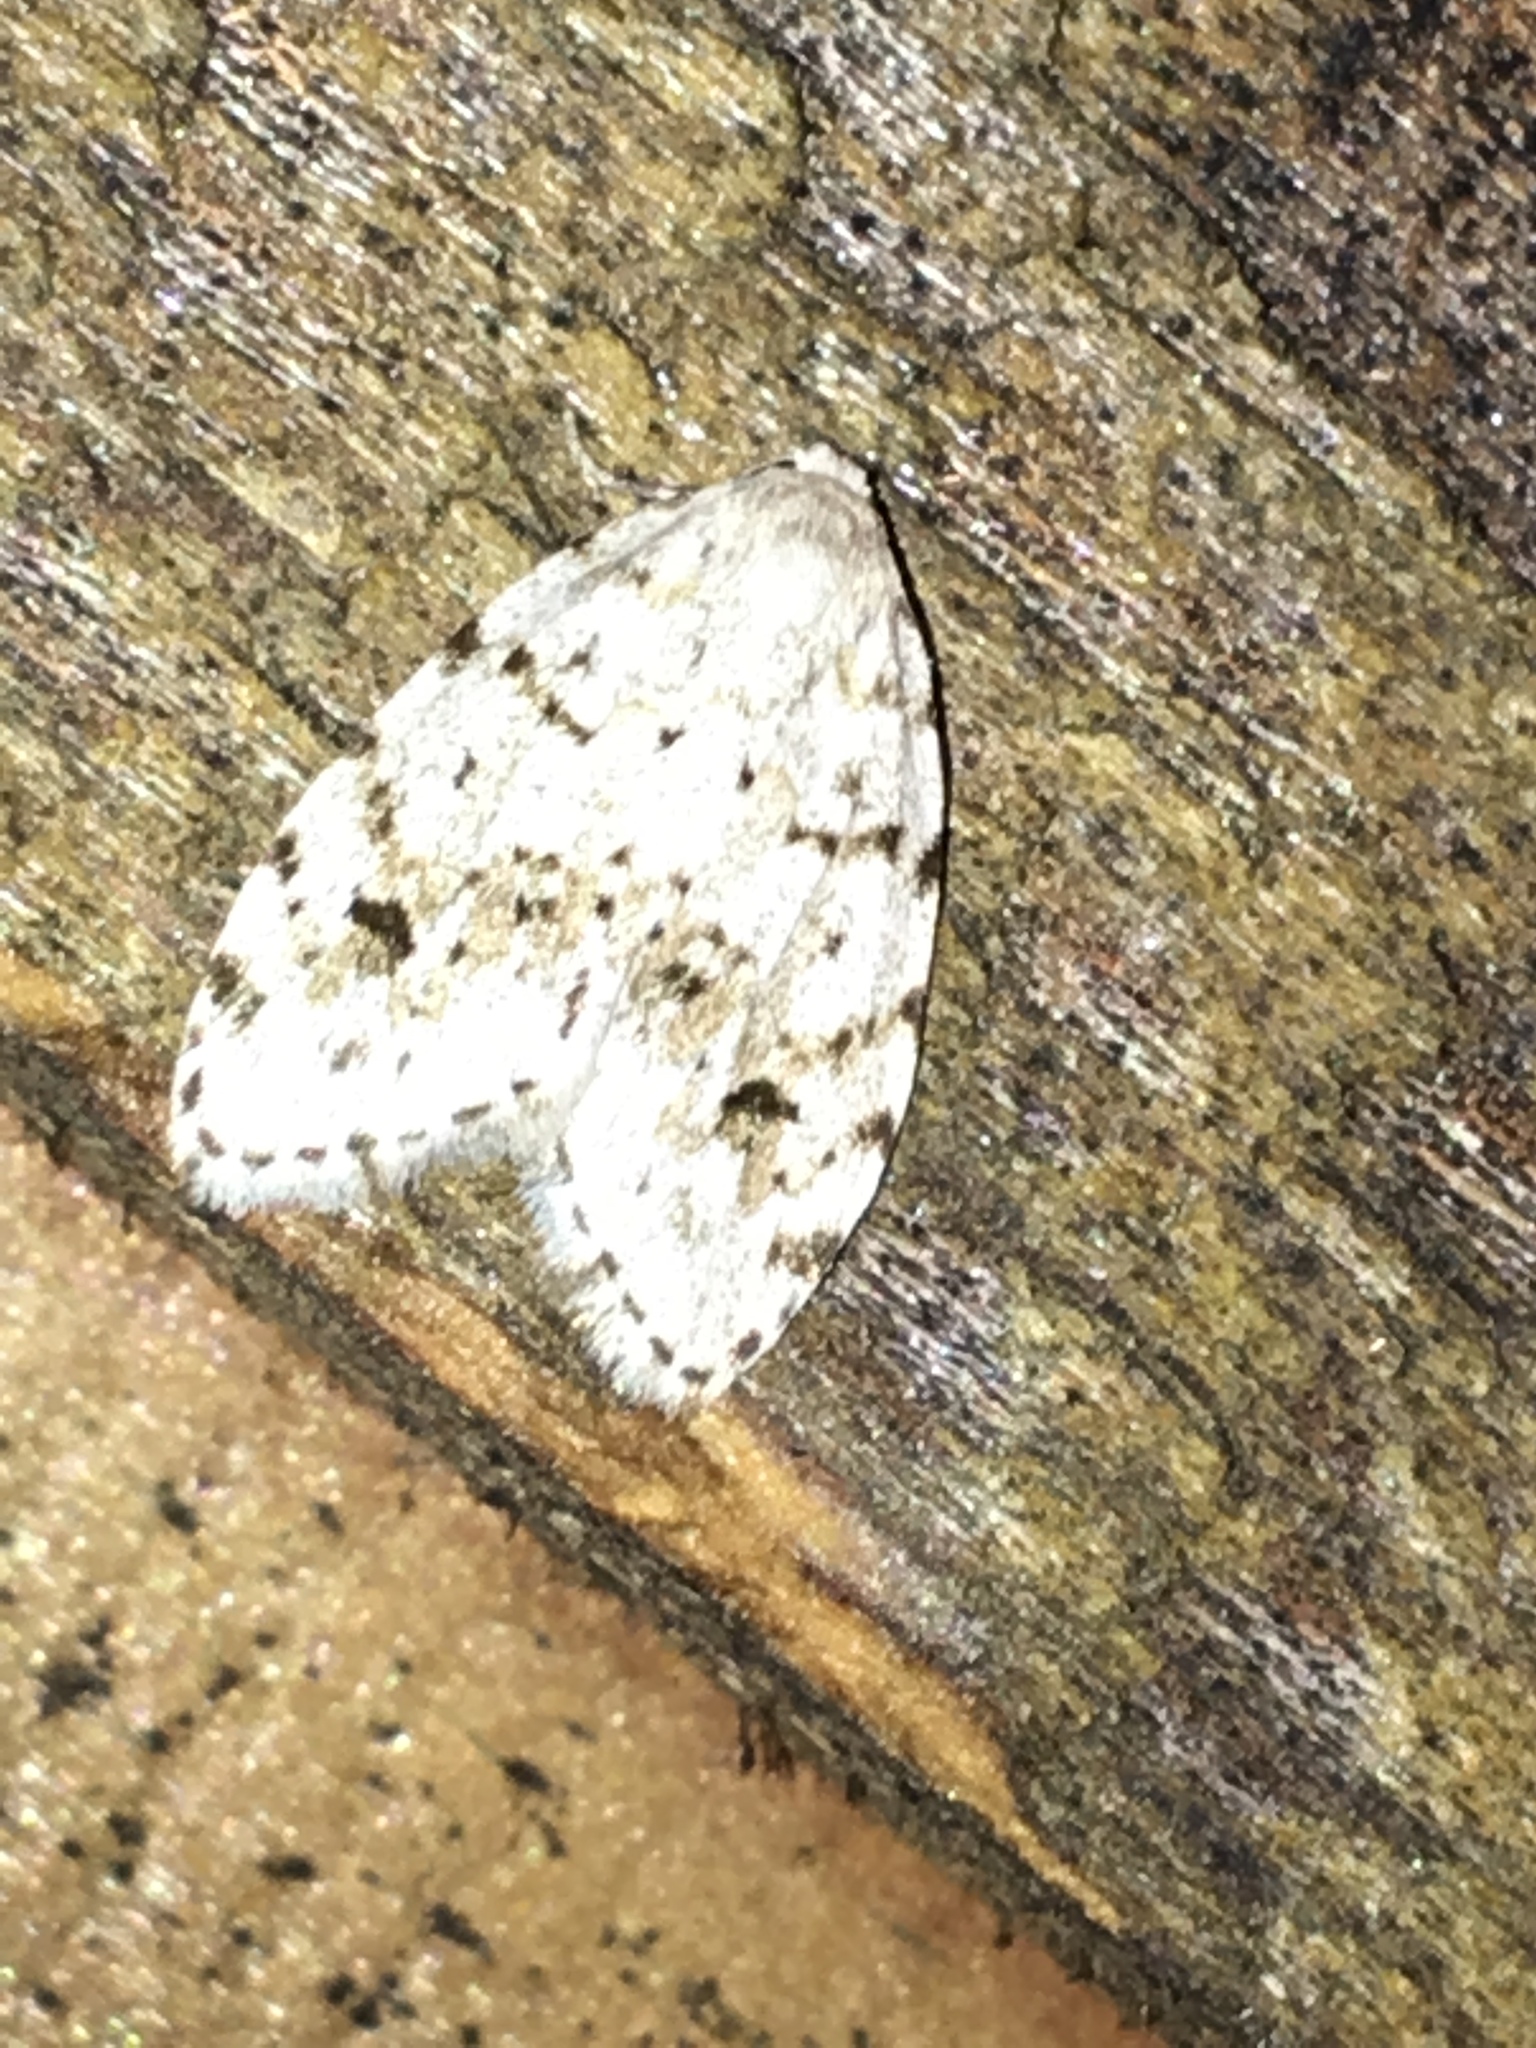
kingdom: Animalia
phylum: Arthropoda
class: Insecta
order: Lepidoptera
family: Erebidae
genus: Clemensia
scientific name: Clemensia albata
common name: Little white lichen moth
